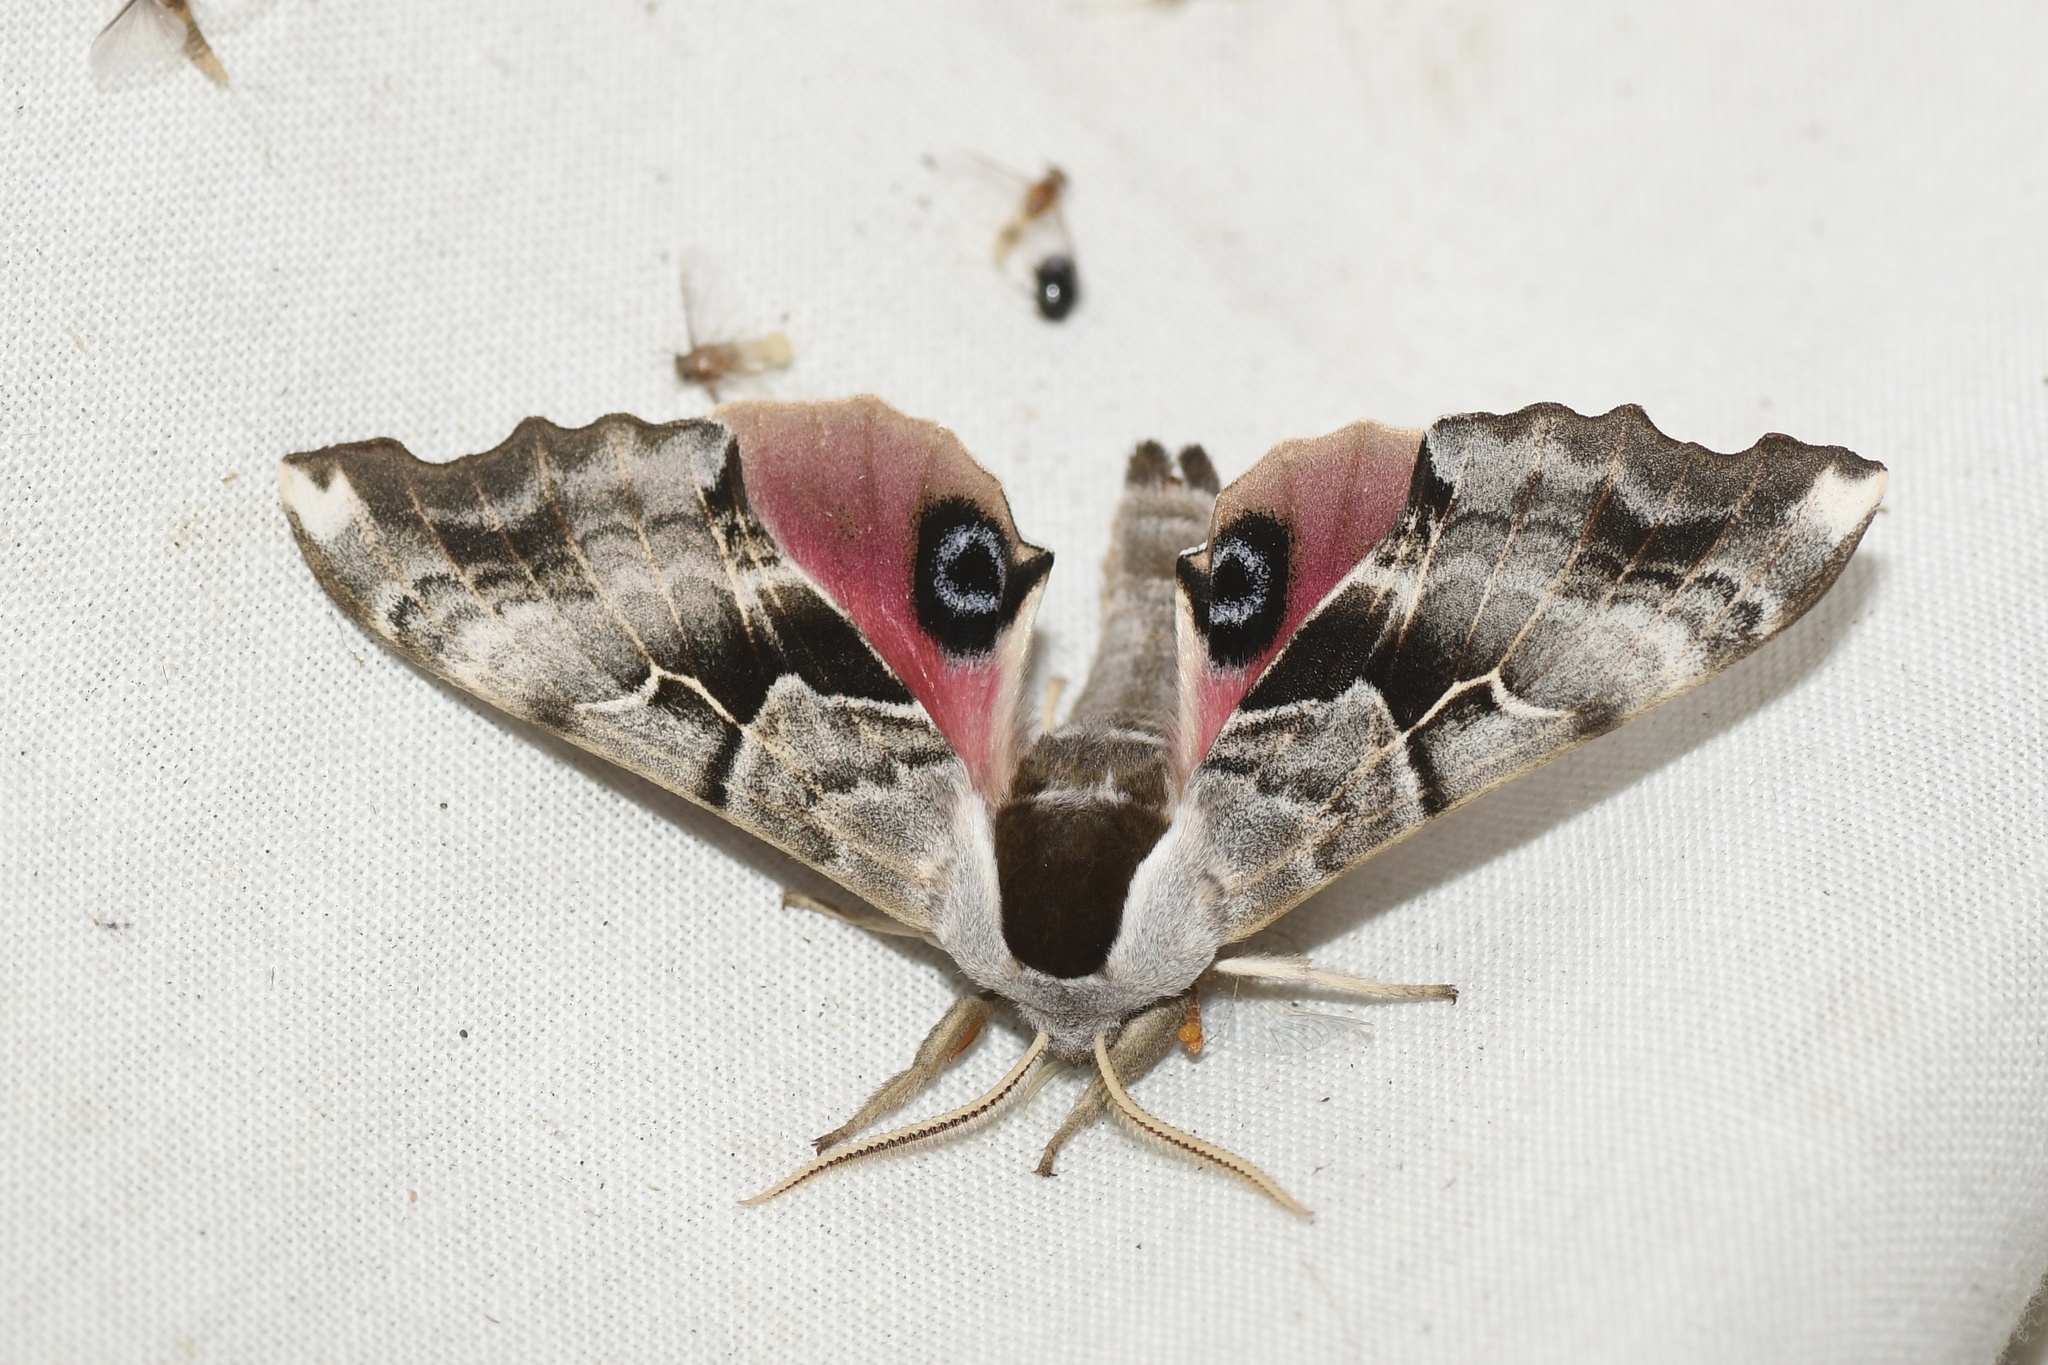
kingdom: Animalia
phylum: Arthropoda
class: Insecta
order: Lepidoptera
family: Sphingidae
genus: Smerinthus
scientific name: Smerinthus cerisyi
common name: Cerisy's sphinx moth
